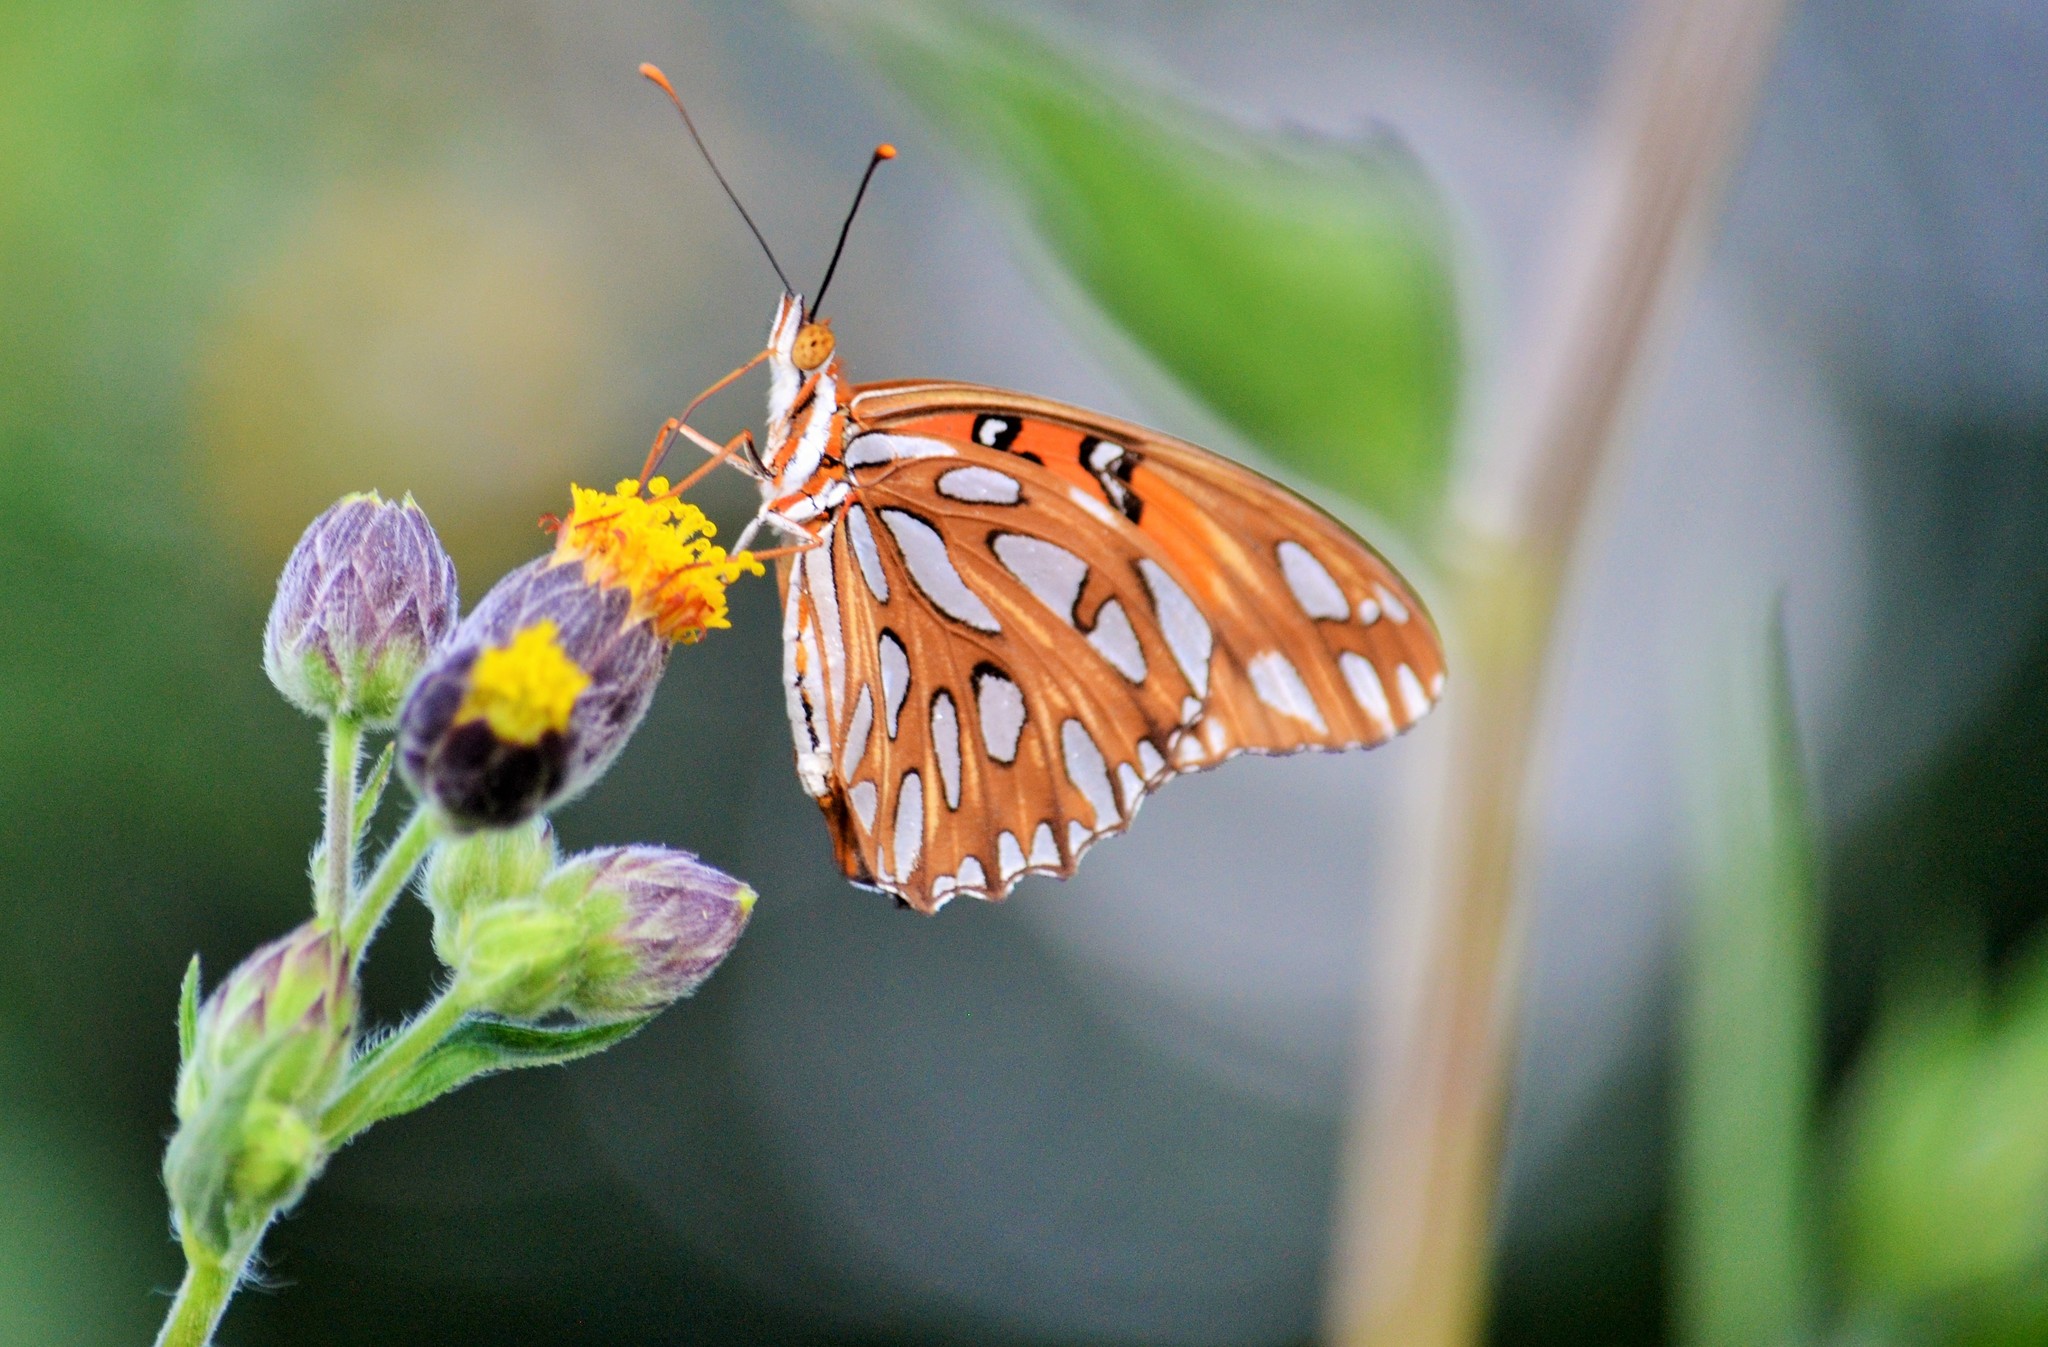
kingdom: Animalia
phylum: Arthropoda
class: Insecta
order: Lepidoptera
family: Nymphalidae
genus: Dione
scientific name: Dione vanillae
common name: Gulf fritillary
